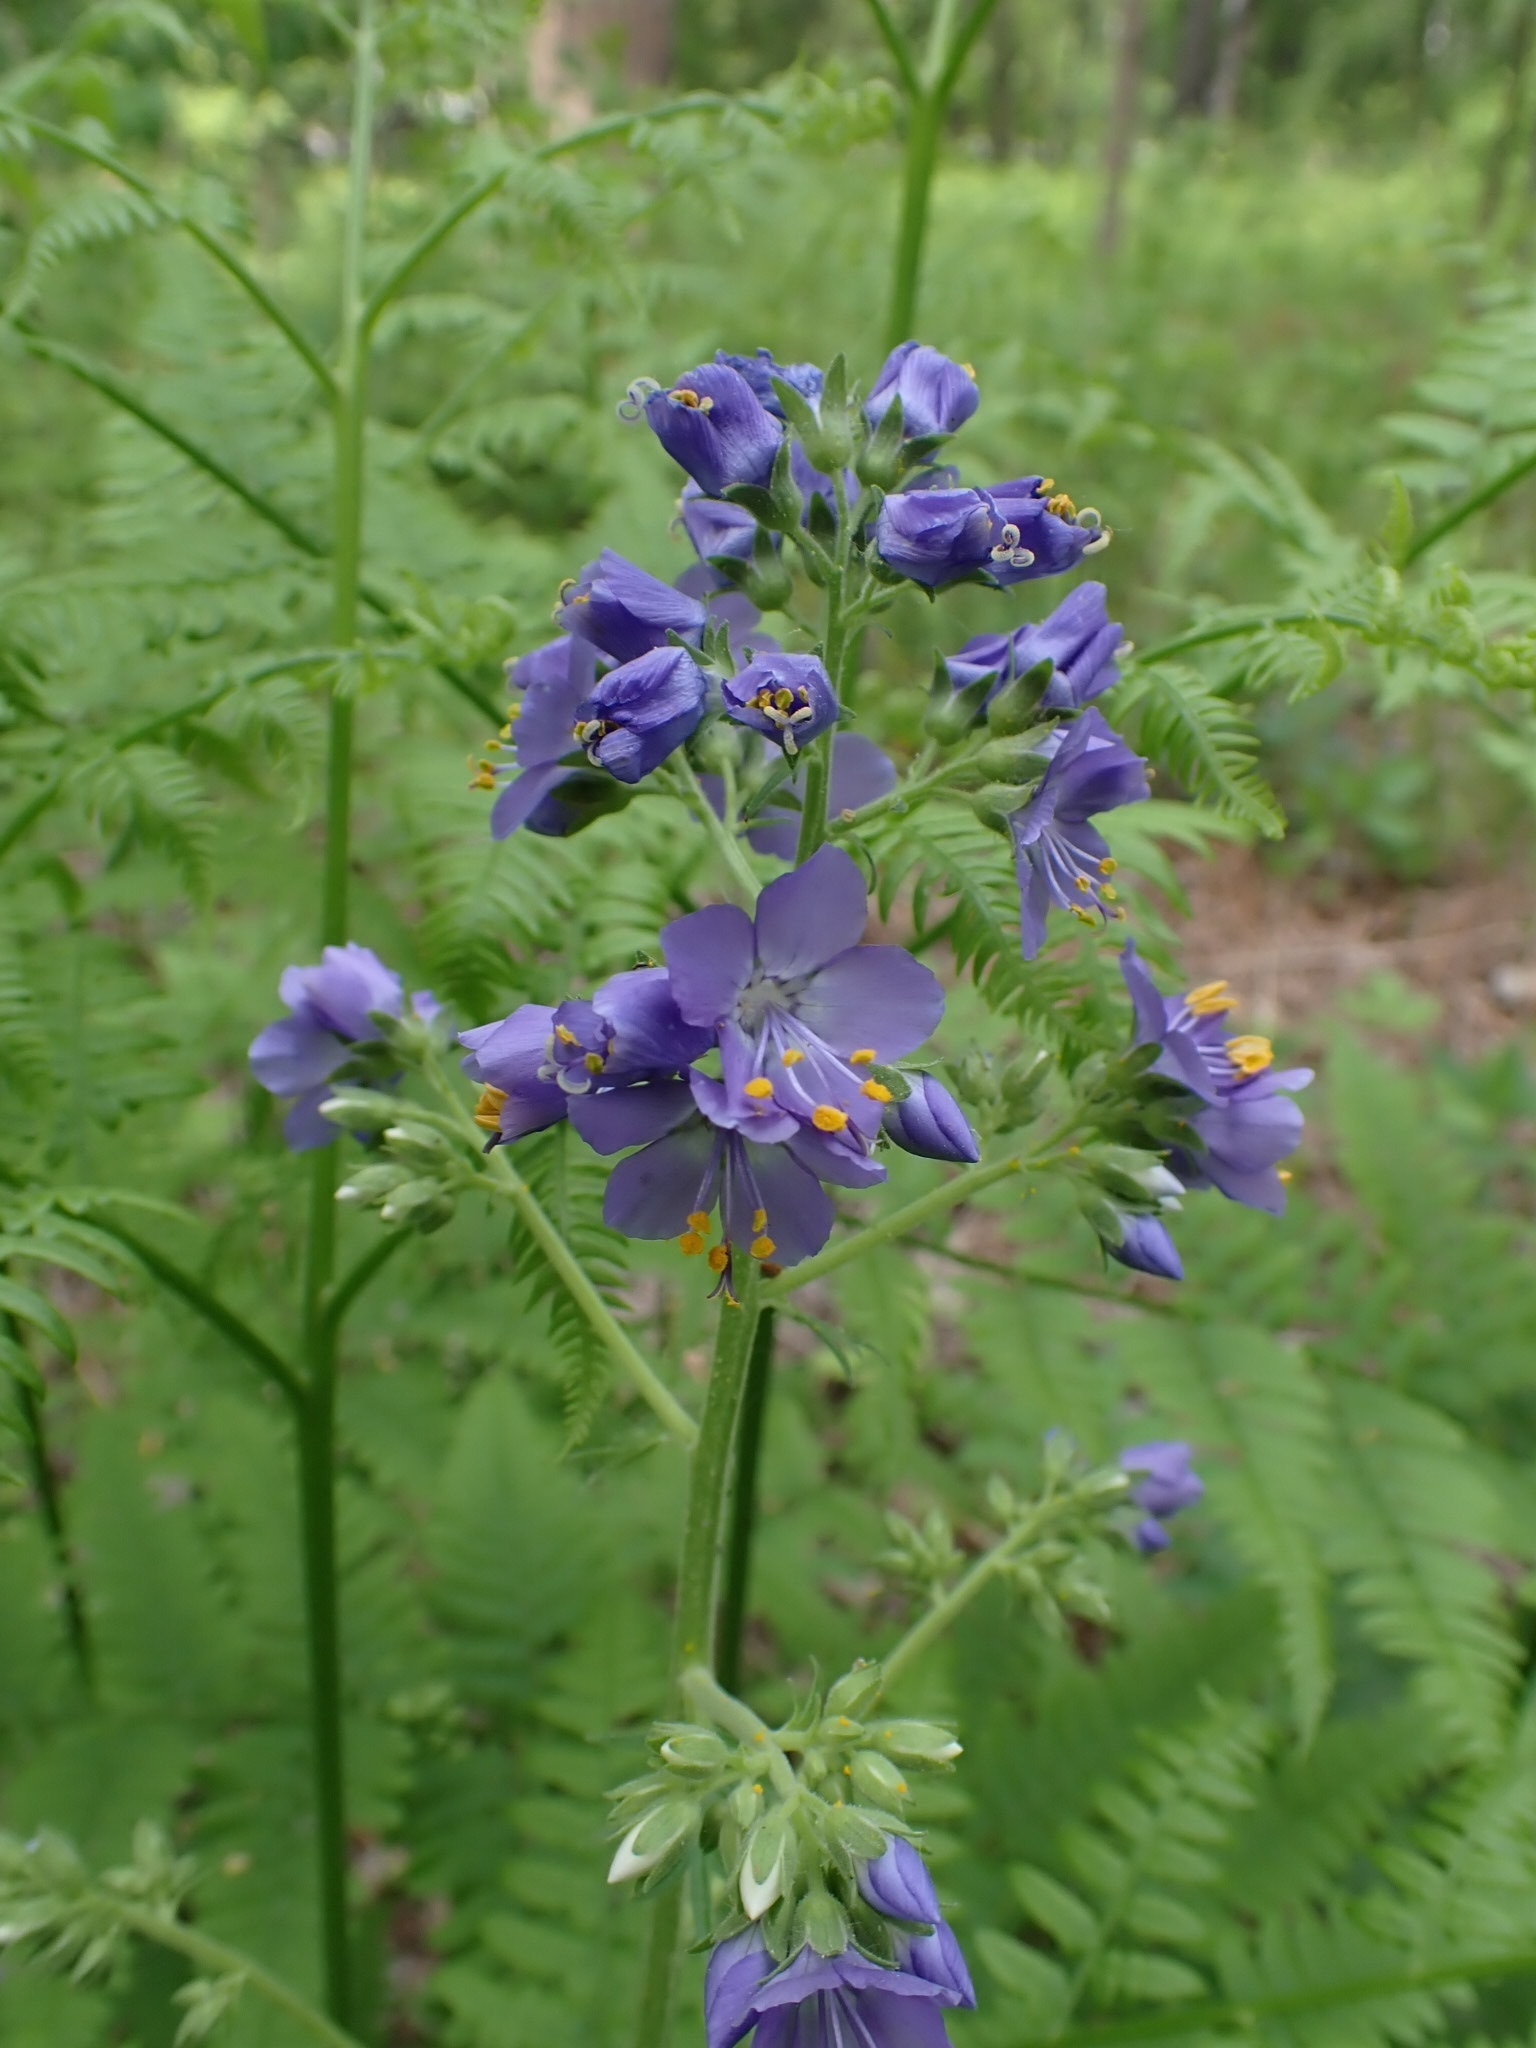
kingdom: Plantae
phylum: Tracheophyta
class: Magnoliopsida
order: Ericales
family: Polemoniaceae
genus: Polemonium
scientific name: Polemonium caeruleum
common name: Jacob's-ladder
